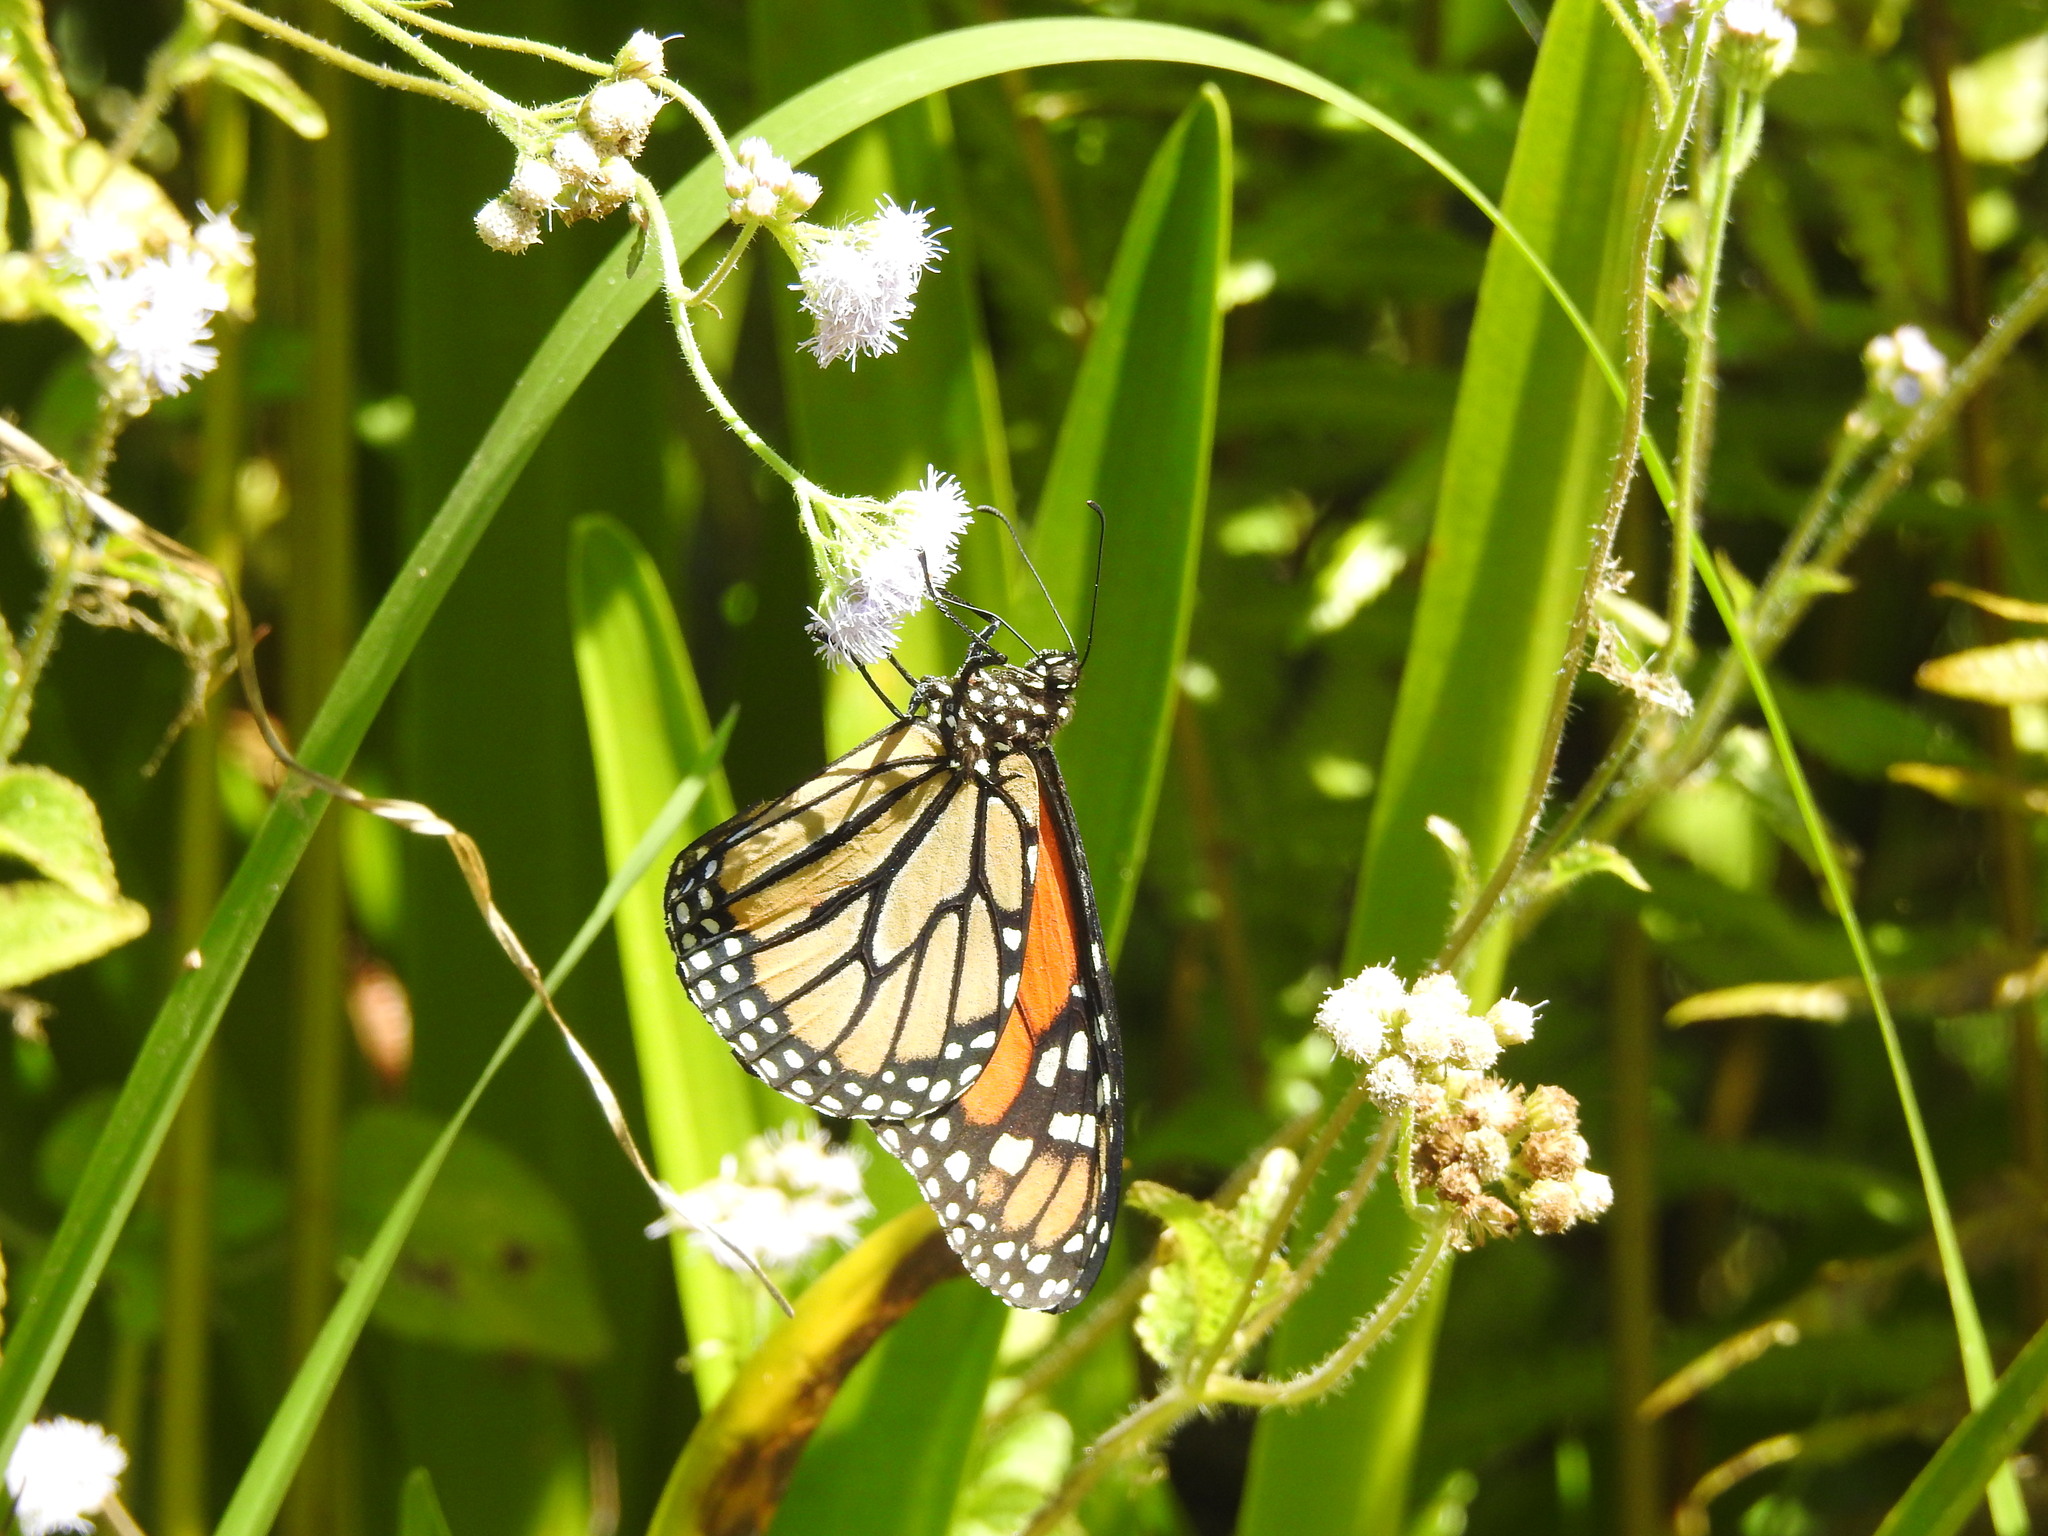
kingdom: Animalia
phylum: Arthropoda
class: Insecta
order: Lepidoptera
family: Nymphalidae
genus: Danaus
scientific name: Danaus plexippus
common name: Monarch
